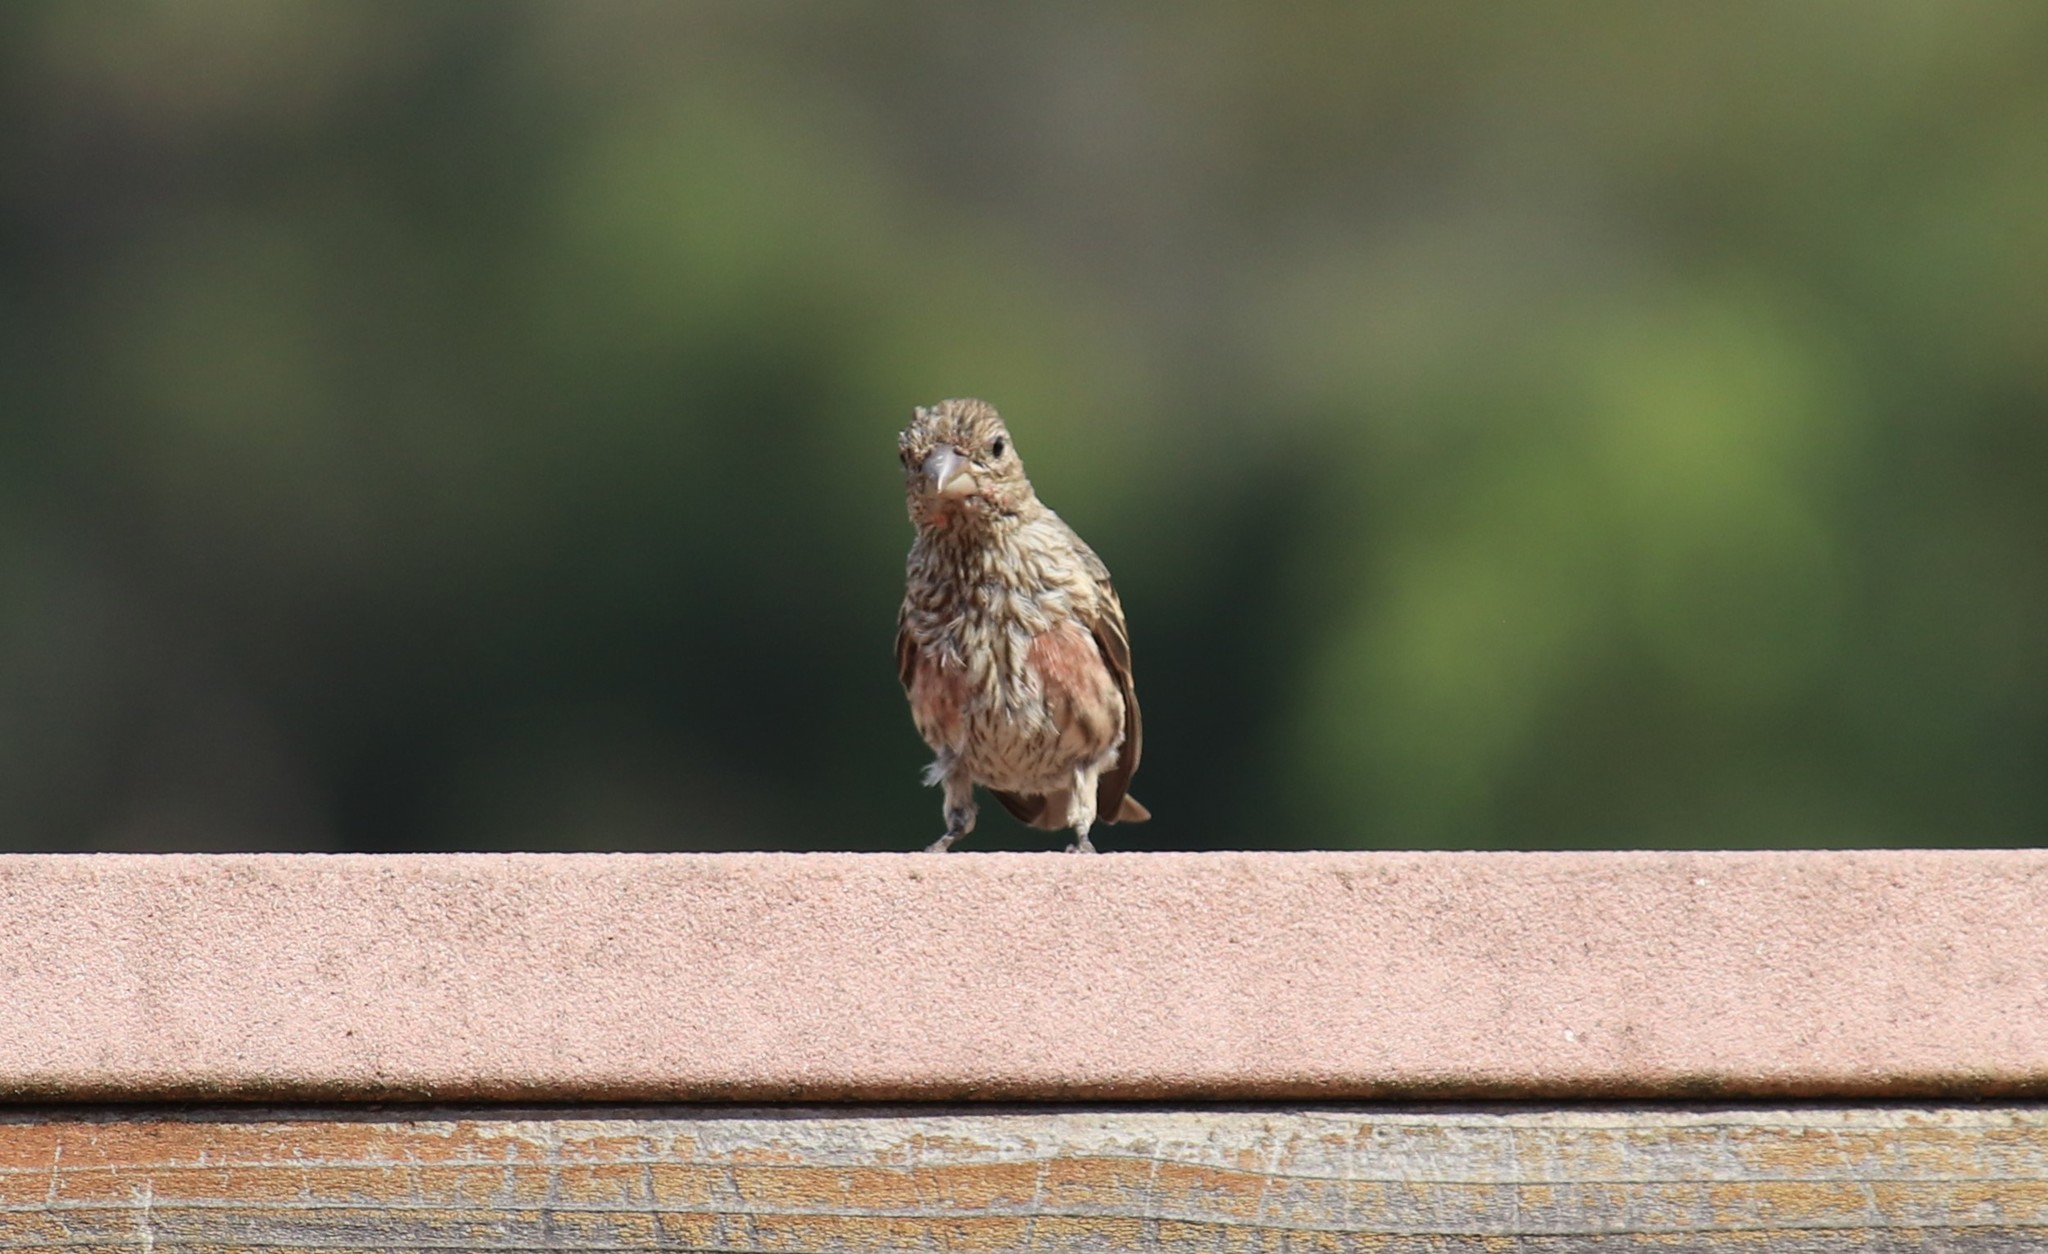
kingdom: Animalia
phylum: Chordata
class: Aves
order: Passeriformes
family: Fringillidae
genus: Haemorhous
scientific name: Haemorhous mexicanus
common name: House finch
